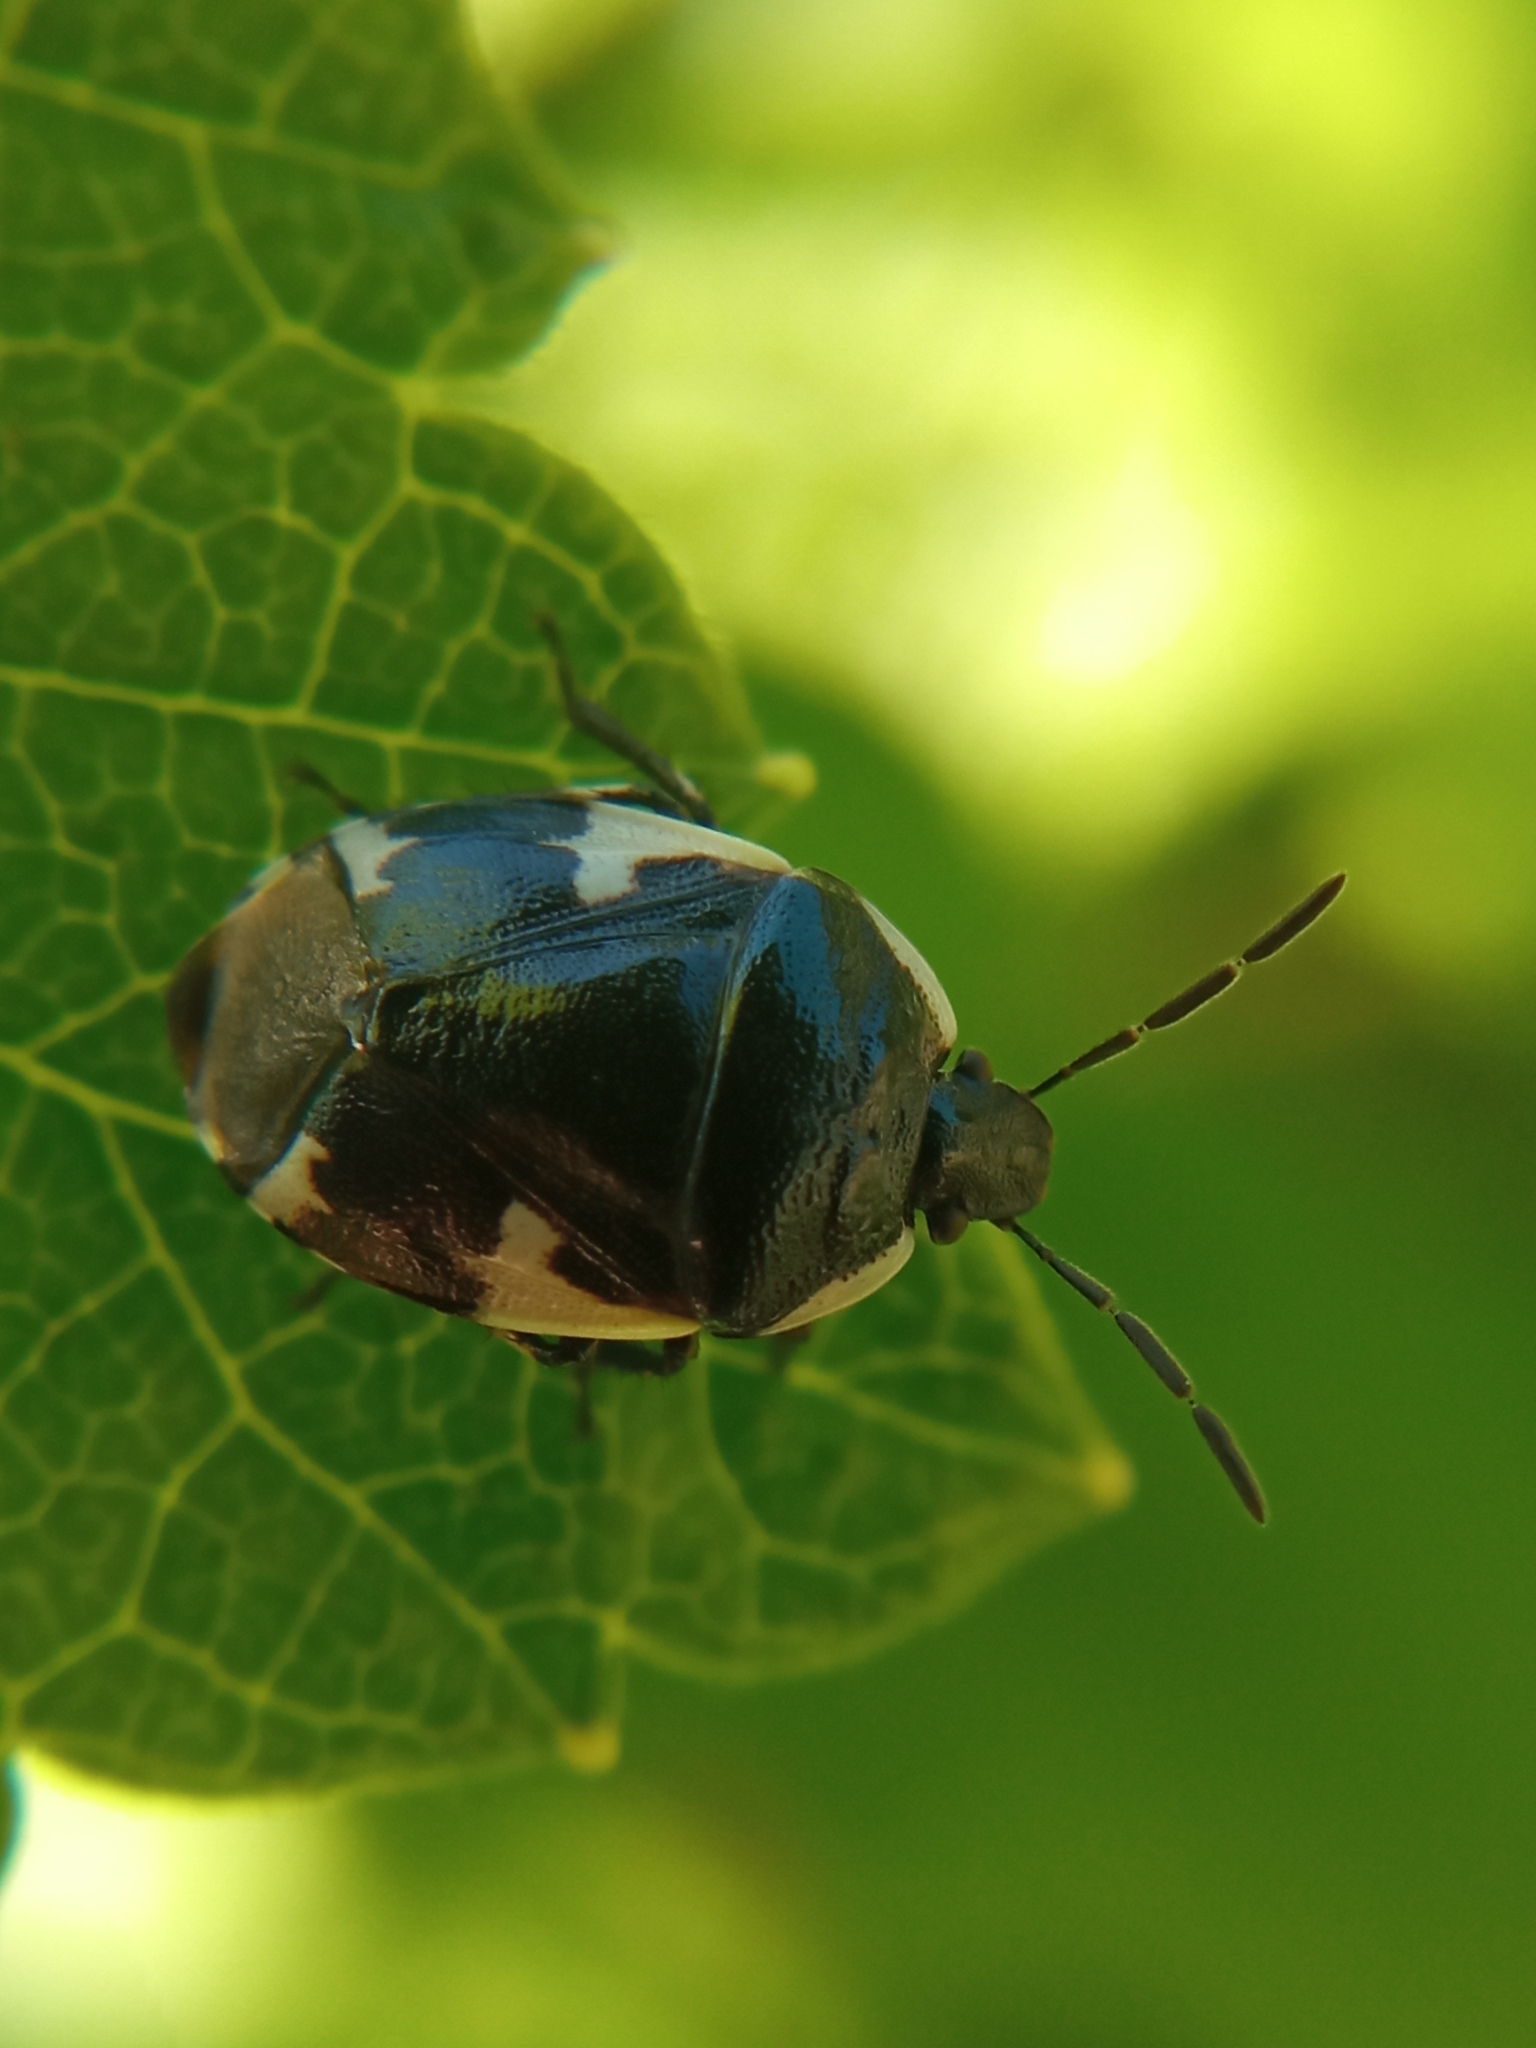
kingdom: Animalia
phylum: Arthropoda
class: Insecta
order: Hemiptera
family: Cydnidae
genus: Tritomegas
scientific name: Tritomegas sexmaculatus
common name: Rambur's pied shieldbug
